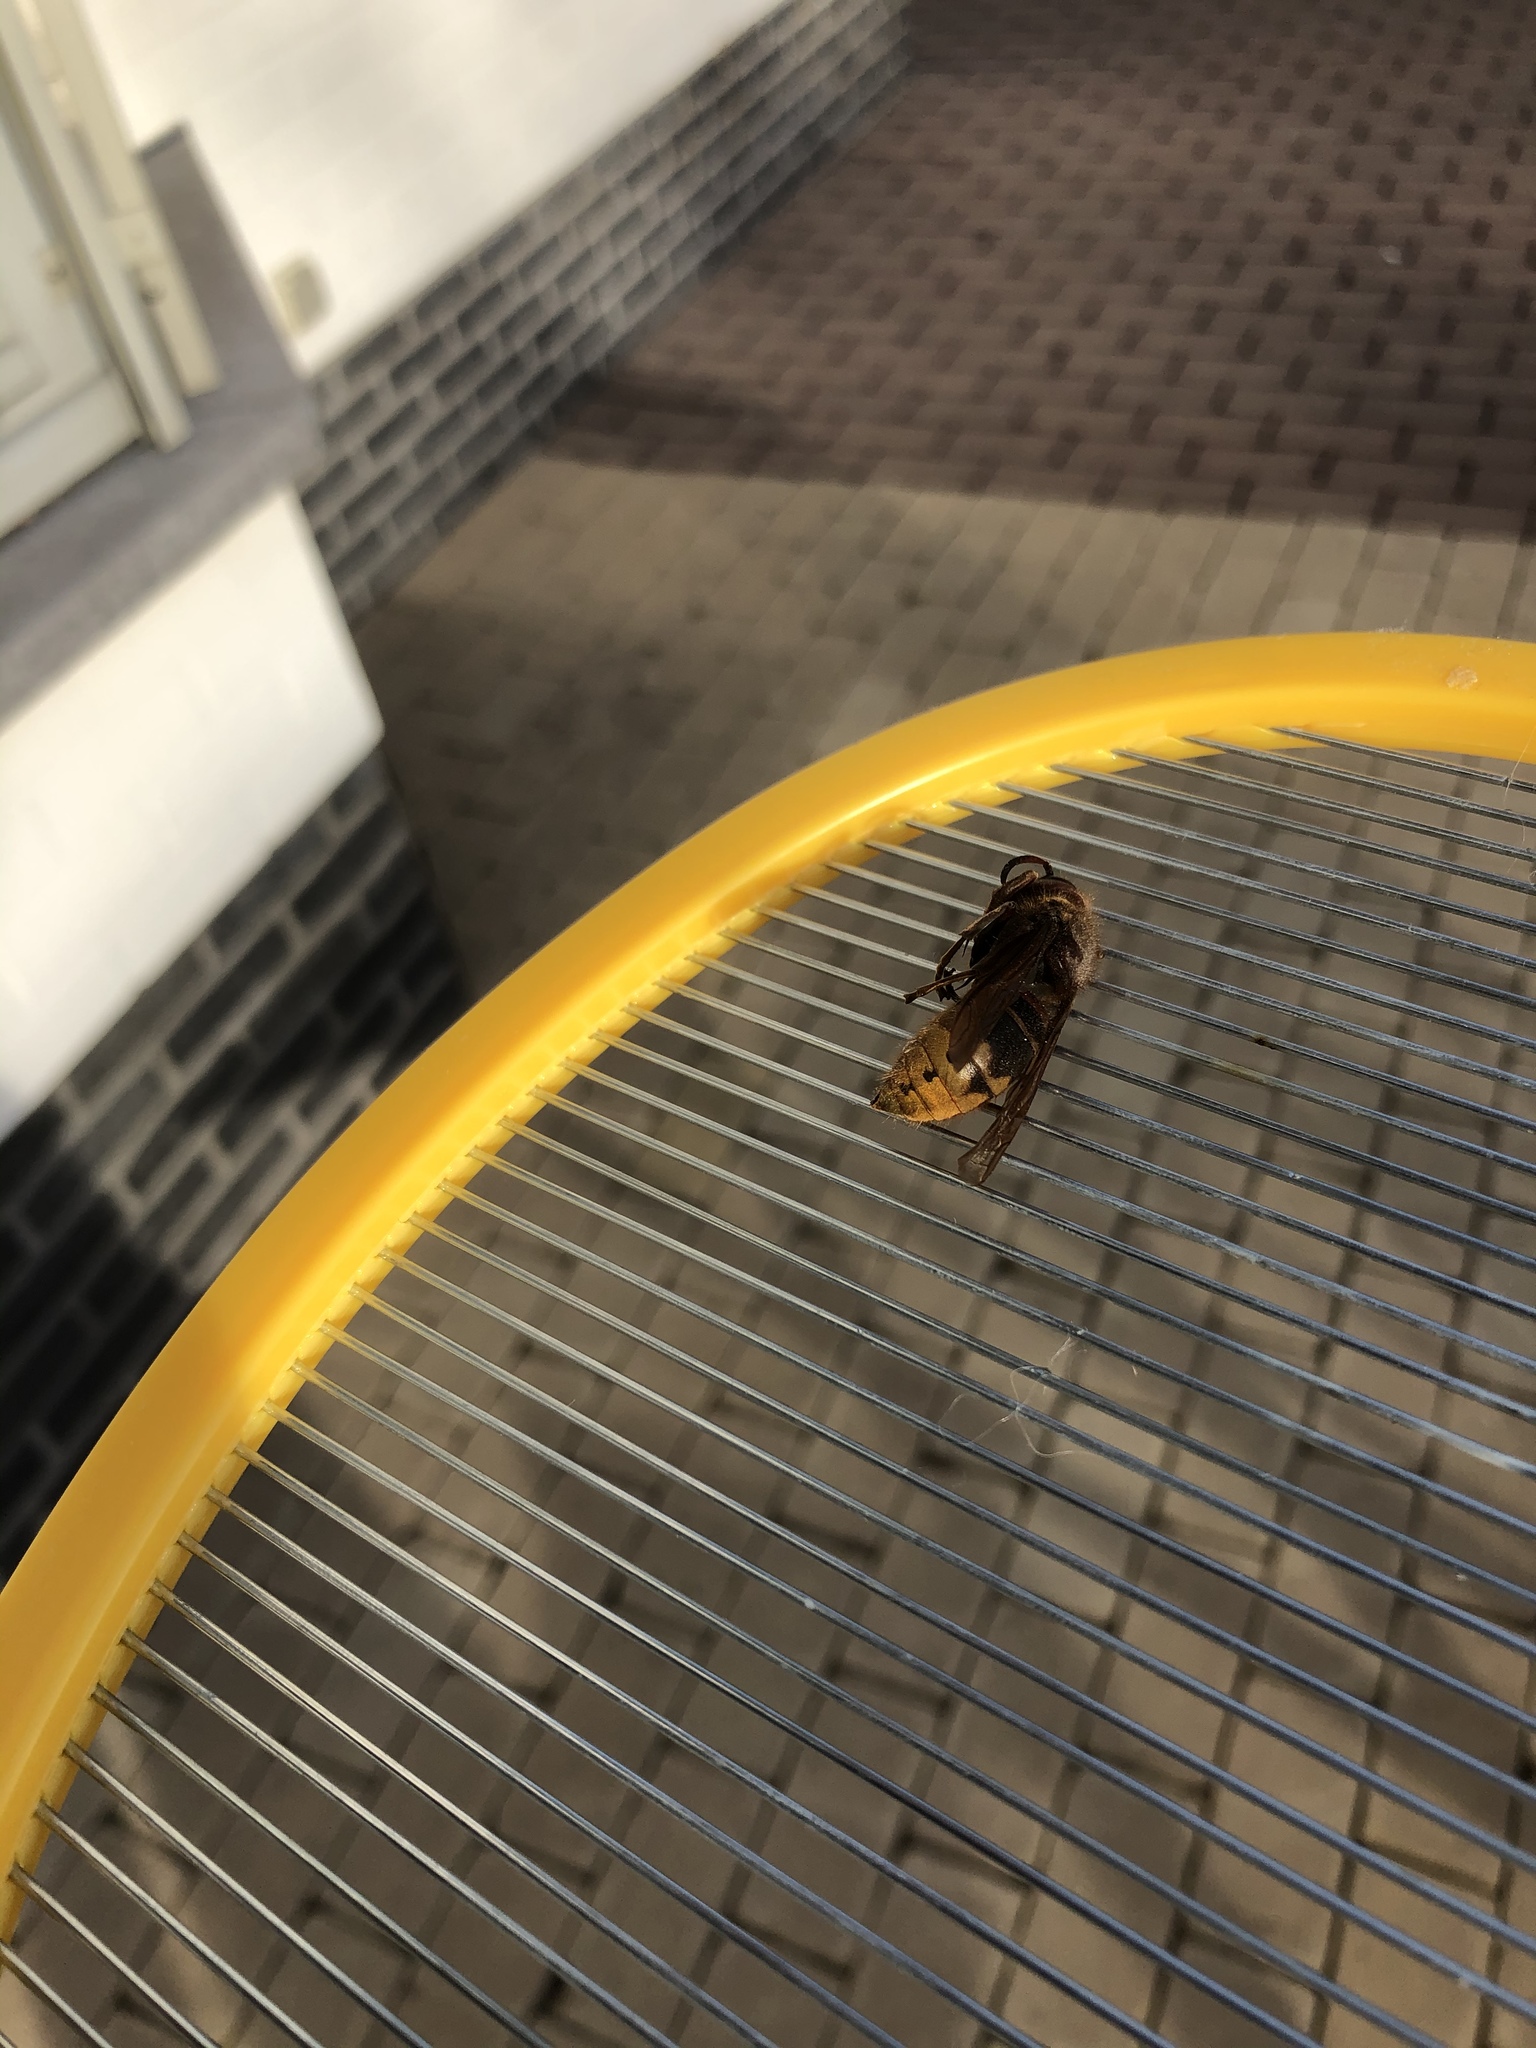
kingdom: Animalia
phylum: Arthropoda
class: Insecta
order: Hymenoptera
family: Vespidae
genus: Vespa
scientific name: Vespa crabro
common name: Hornet
